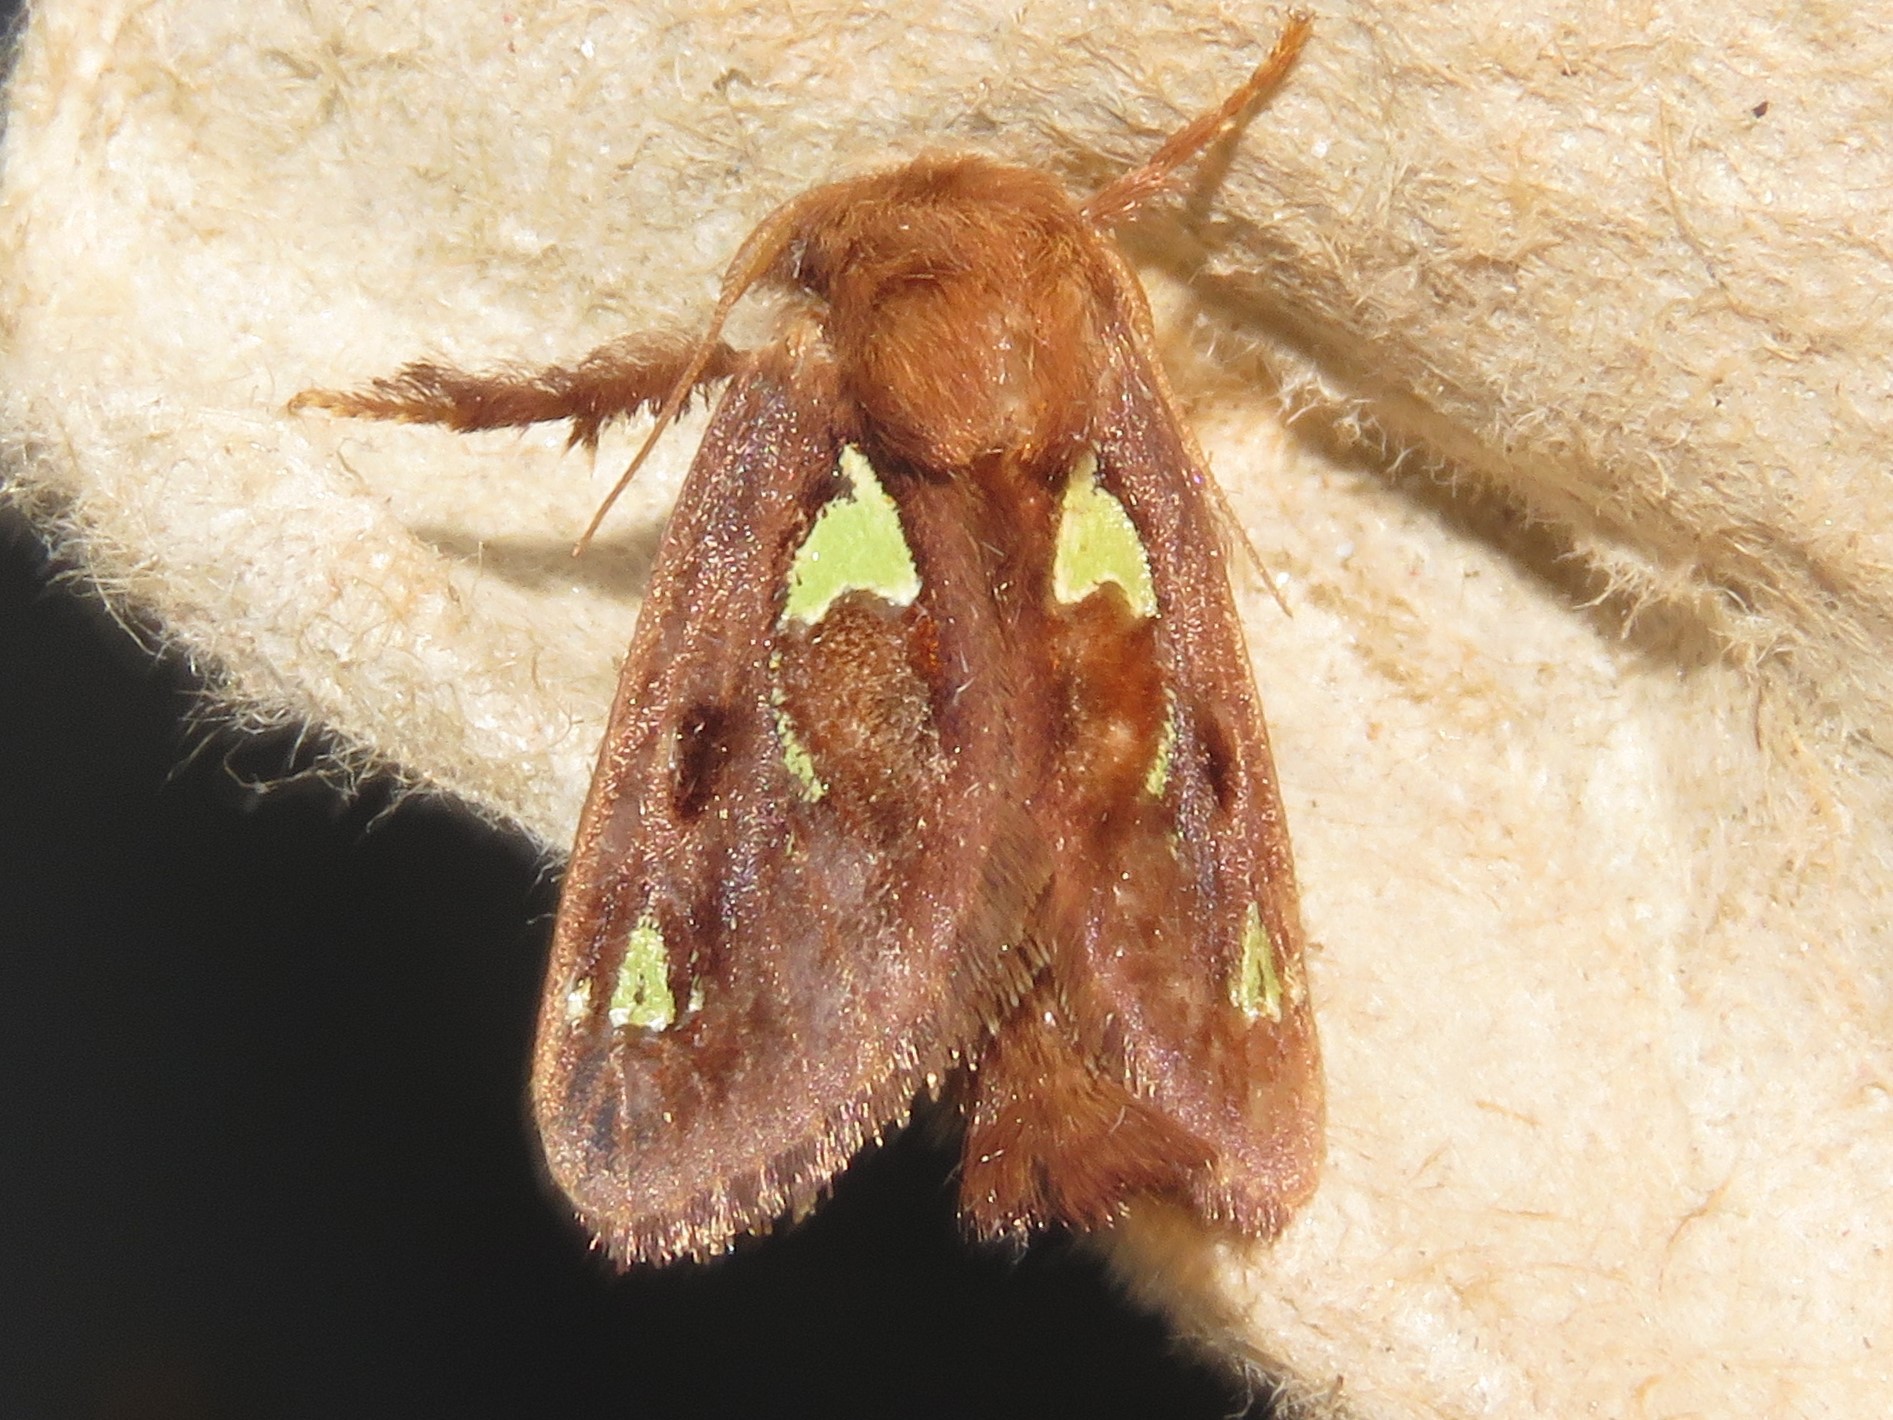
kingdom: Animalia
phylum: Arthropoda
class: Insecta
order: Lepidoptera
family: Limacodidae
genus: Euclea
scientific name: Euclea delphinii
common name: Spiny oak-slug moth
